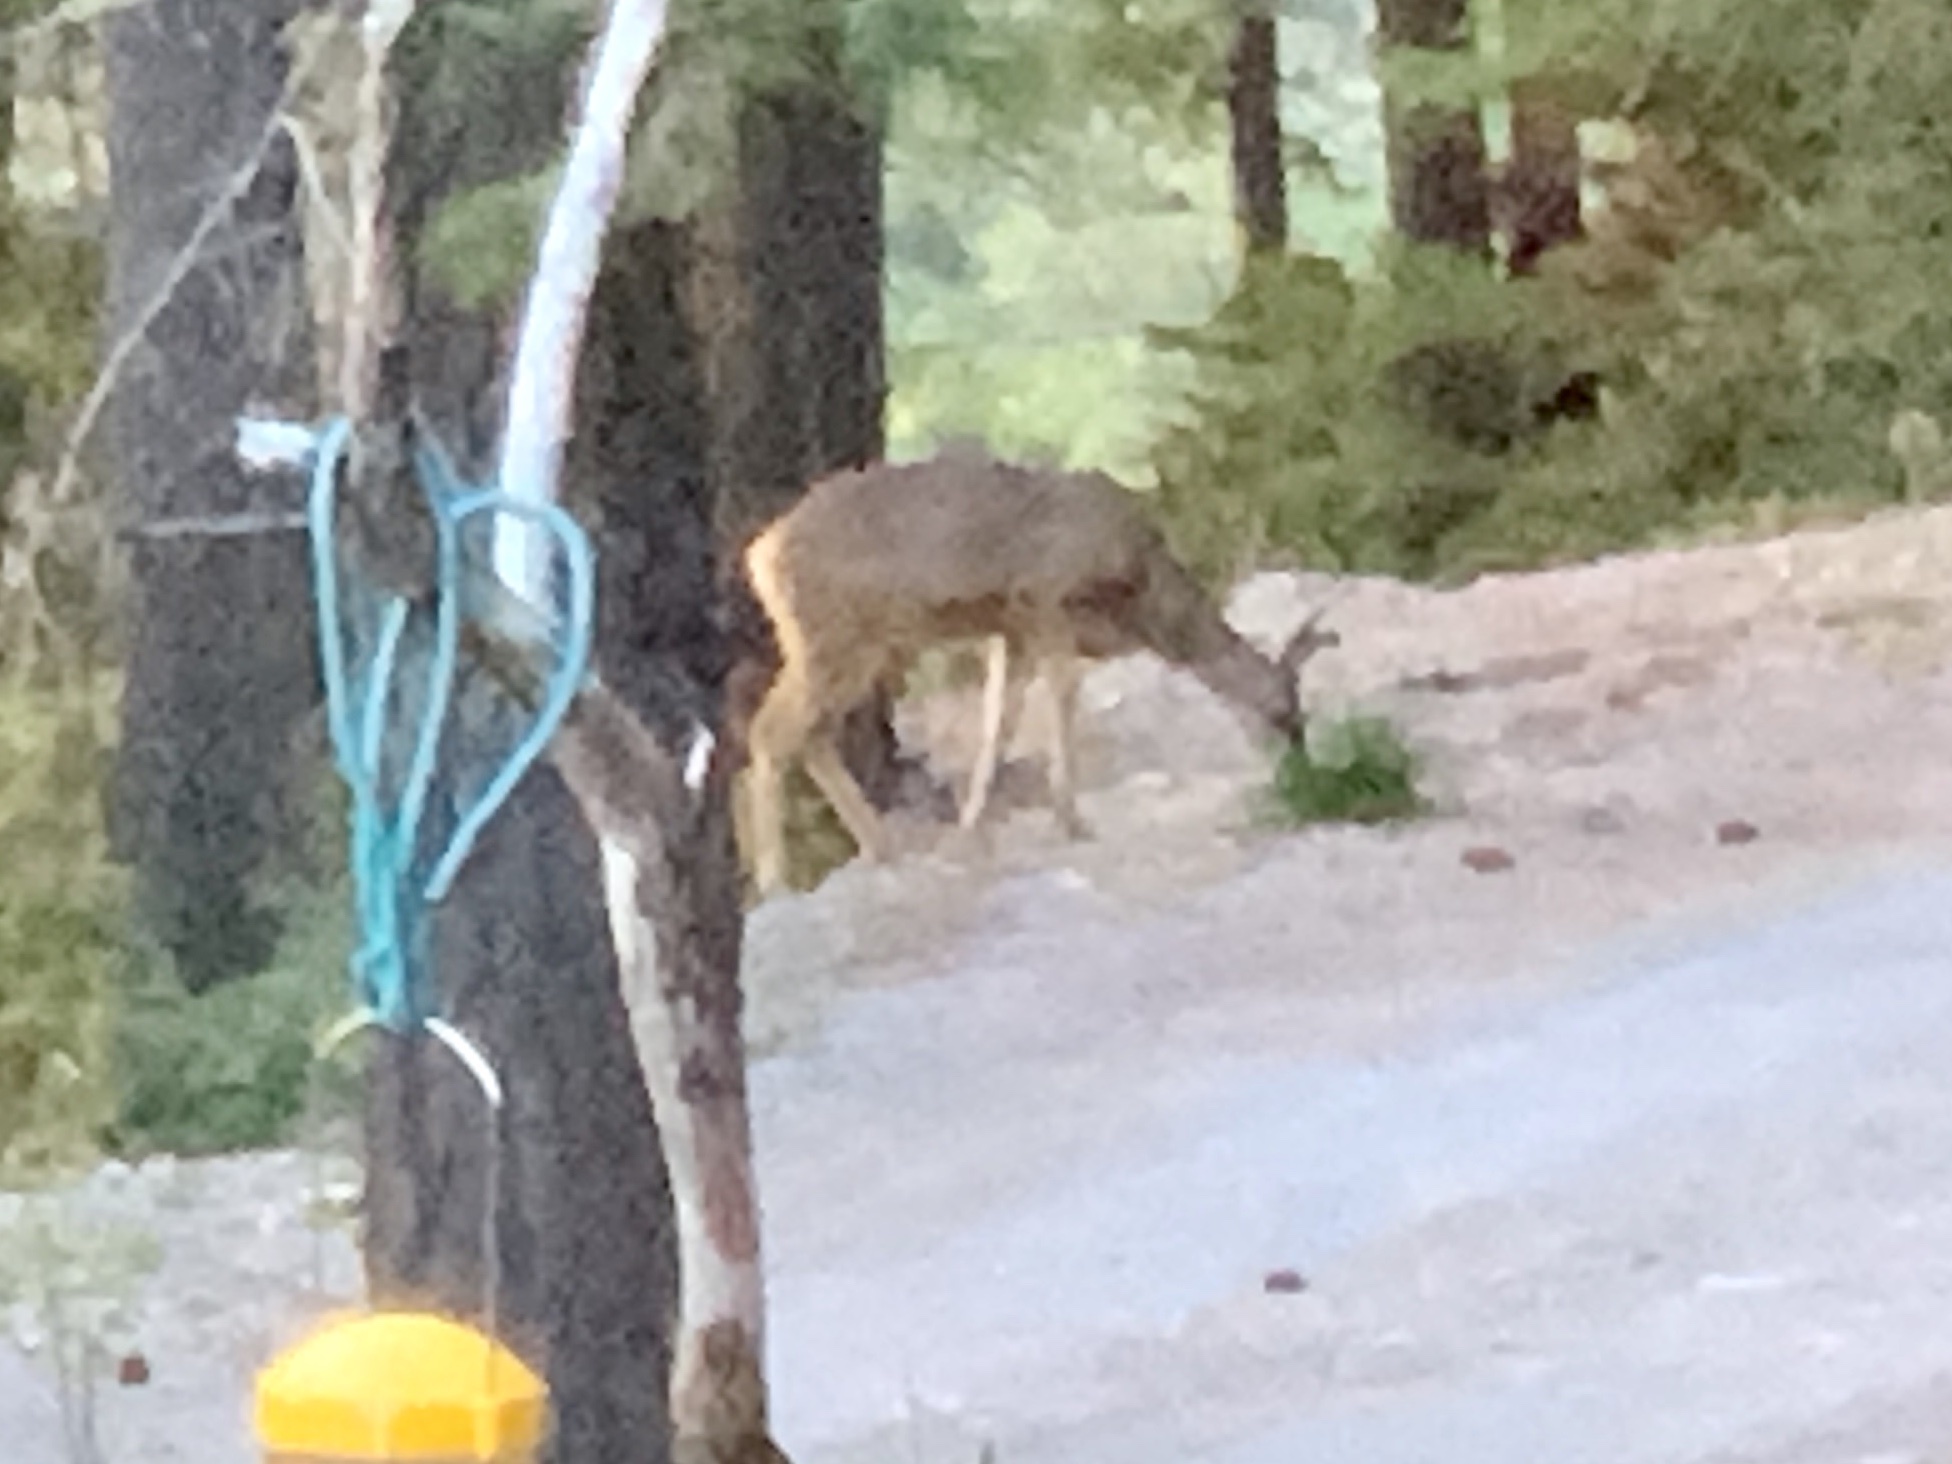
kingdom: Animalia
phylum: Chordata
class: Mammalia
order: Artiodactyla
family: Cervidae
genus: Odocoileus
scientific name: Odocoileus hemionus
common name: Mule deer
